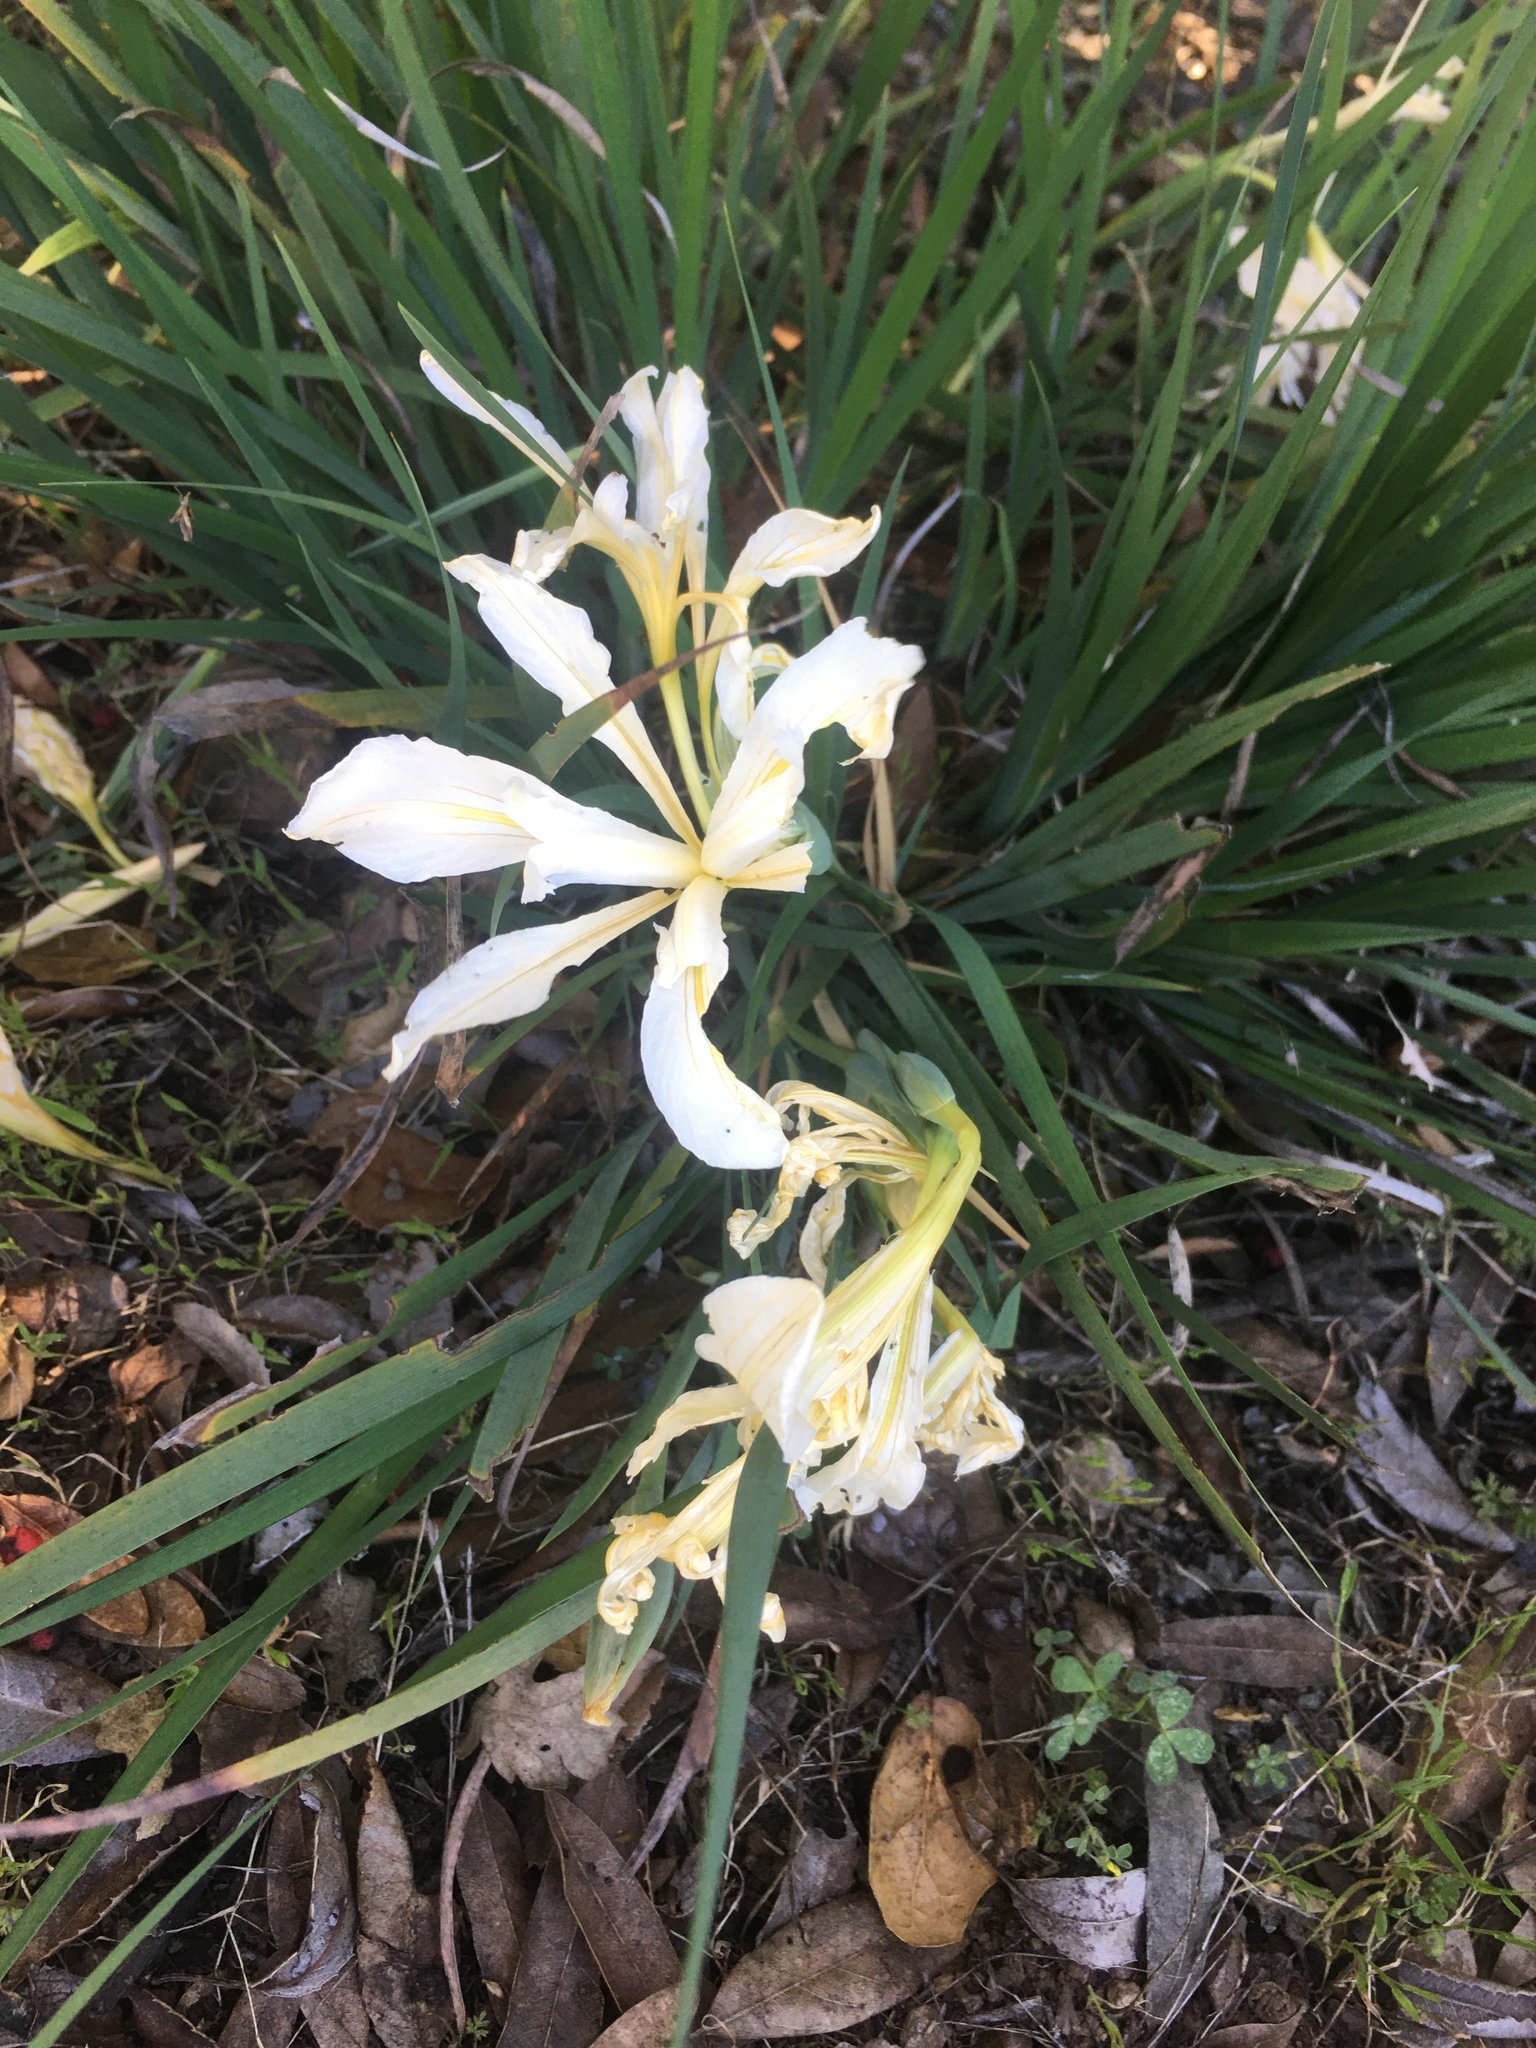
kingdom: Plantae
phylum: Tracheophyta
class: Liliopsida
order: Asparagales
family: Iridaceae
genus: Iris
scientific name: Iris fernaldii
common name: Fernald's iris
